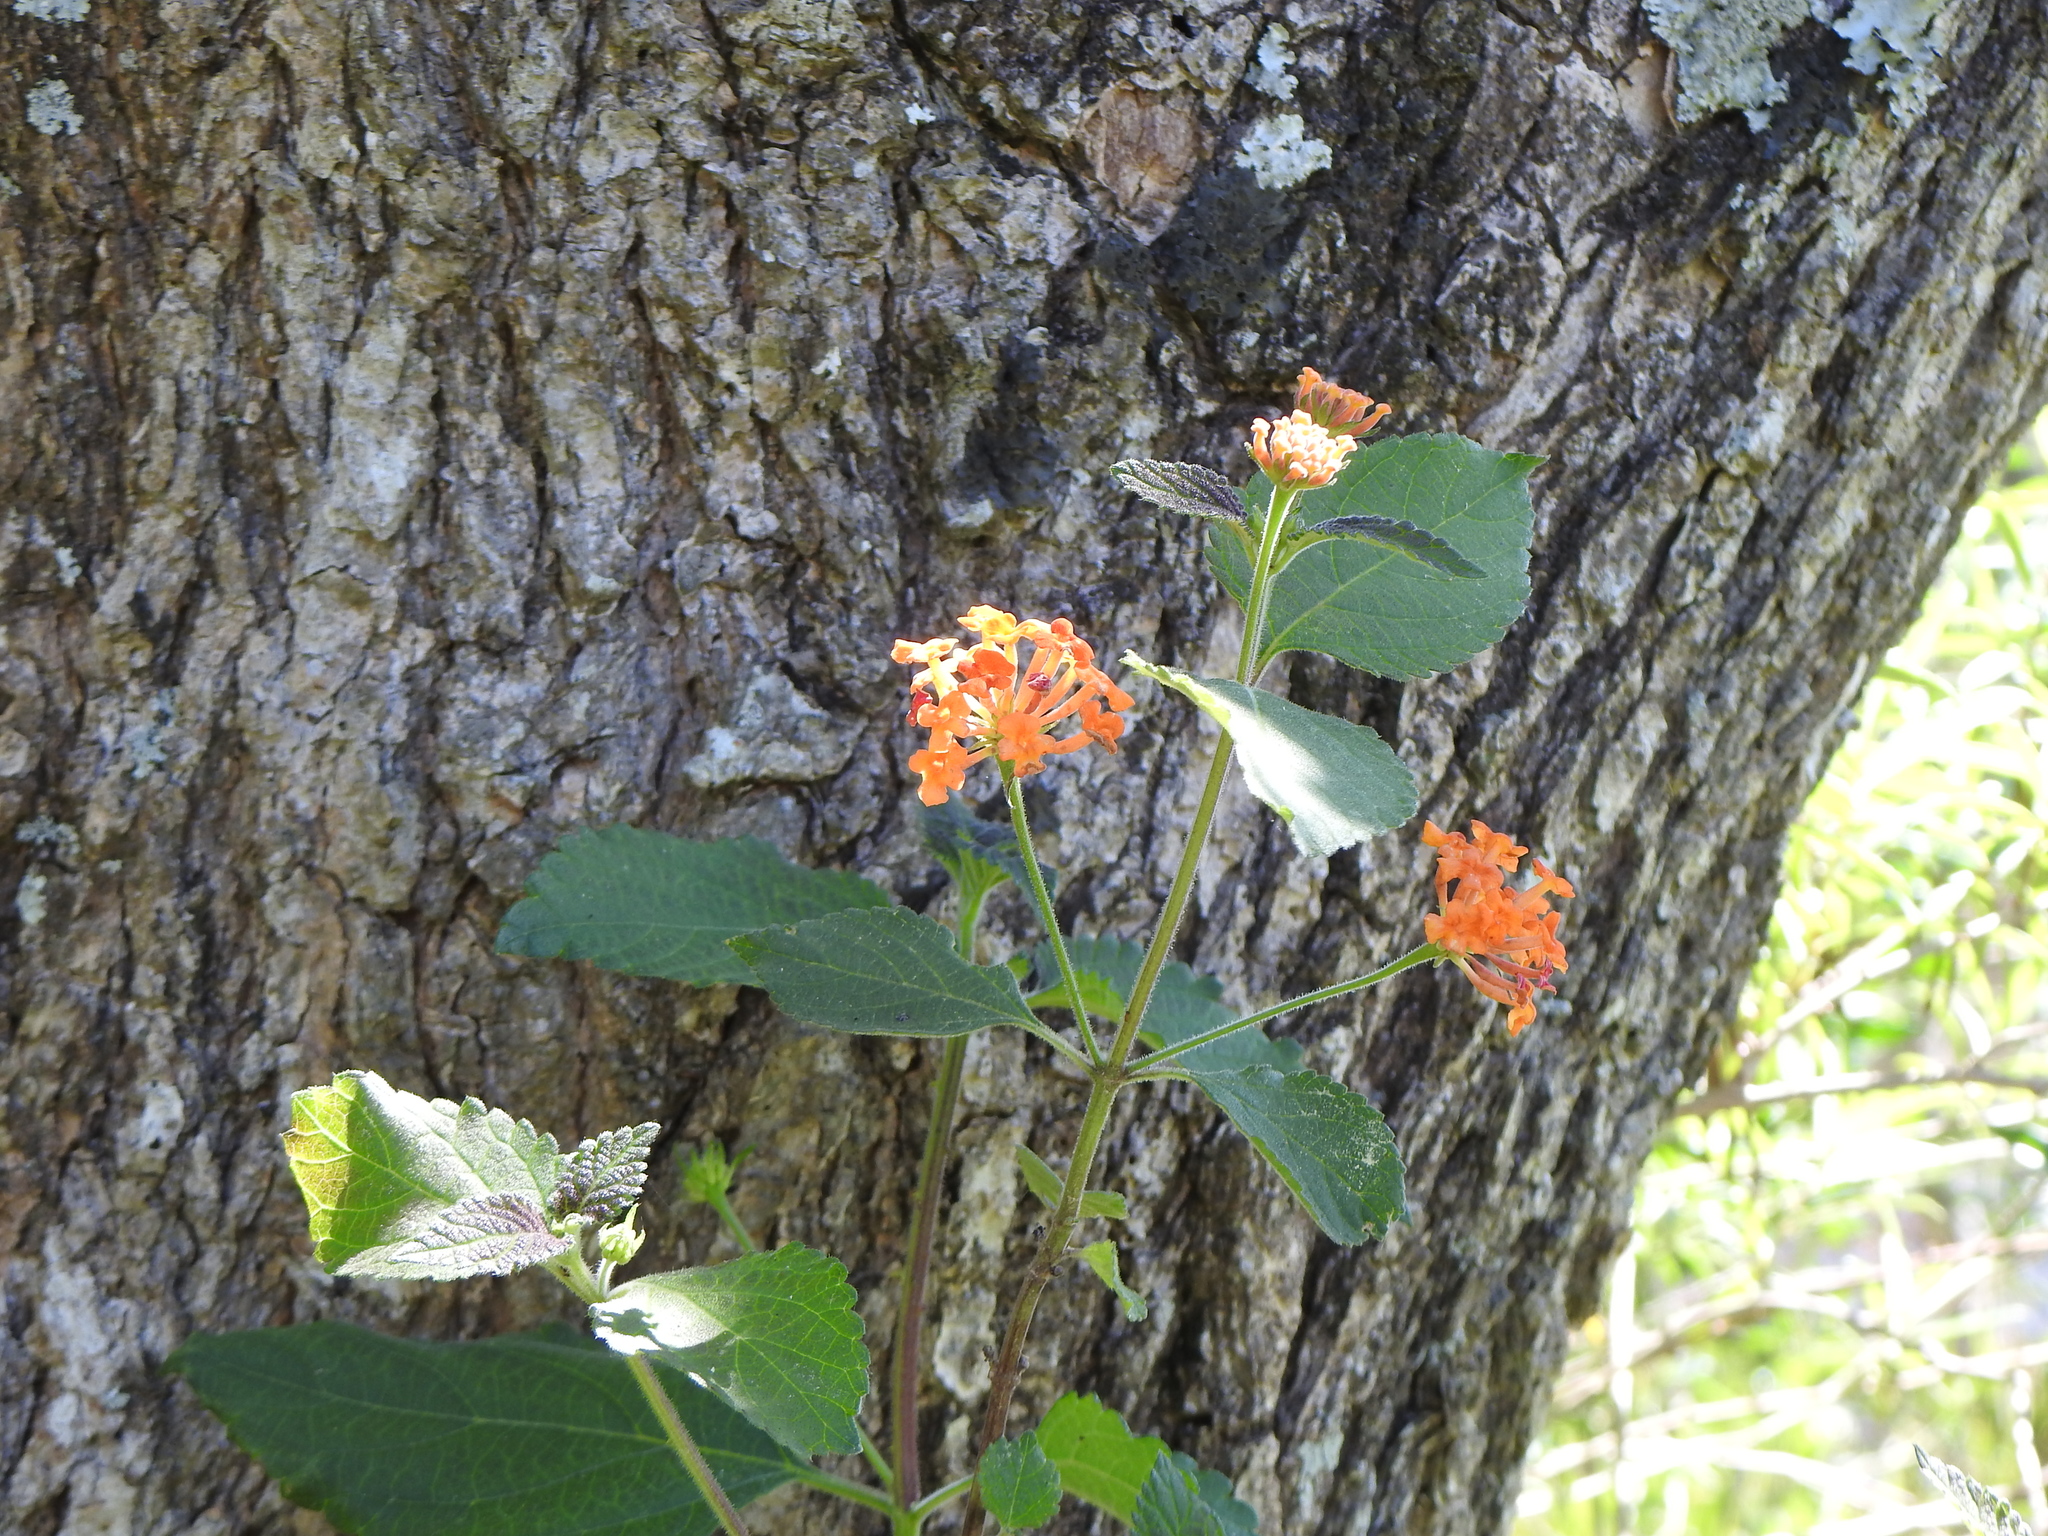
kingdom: Plantae
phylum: Tracheophyta
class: Magnoliopsida
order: Lamiales
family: Verbenaceae
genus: Lantana
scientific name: Lantana camara
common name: Lantana
